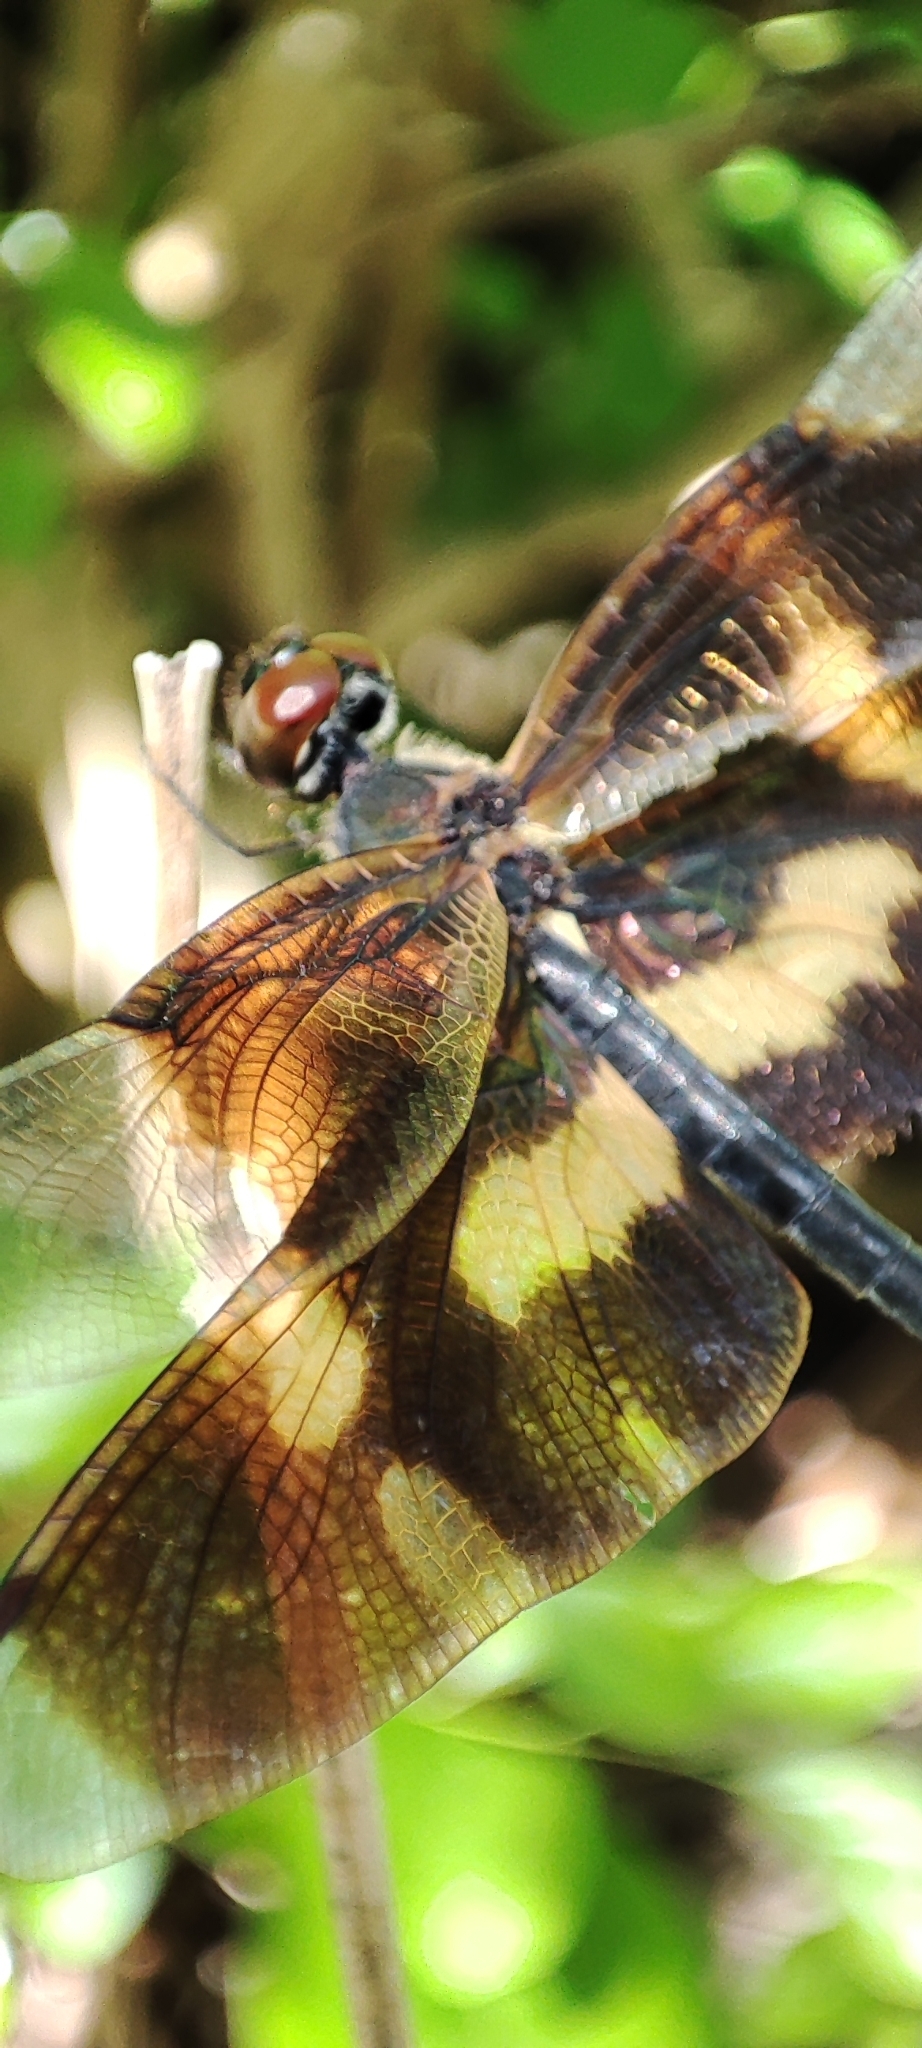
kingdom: Animalia
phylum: Arthropoda
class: Insecta
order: Odonata
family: Libellulidae
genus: Rhyothemis
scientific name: Rhyothemis variegata
